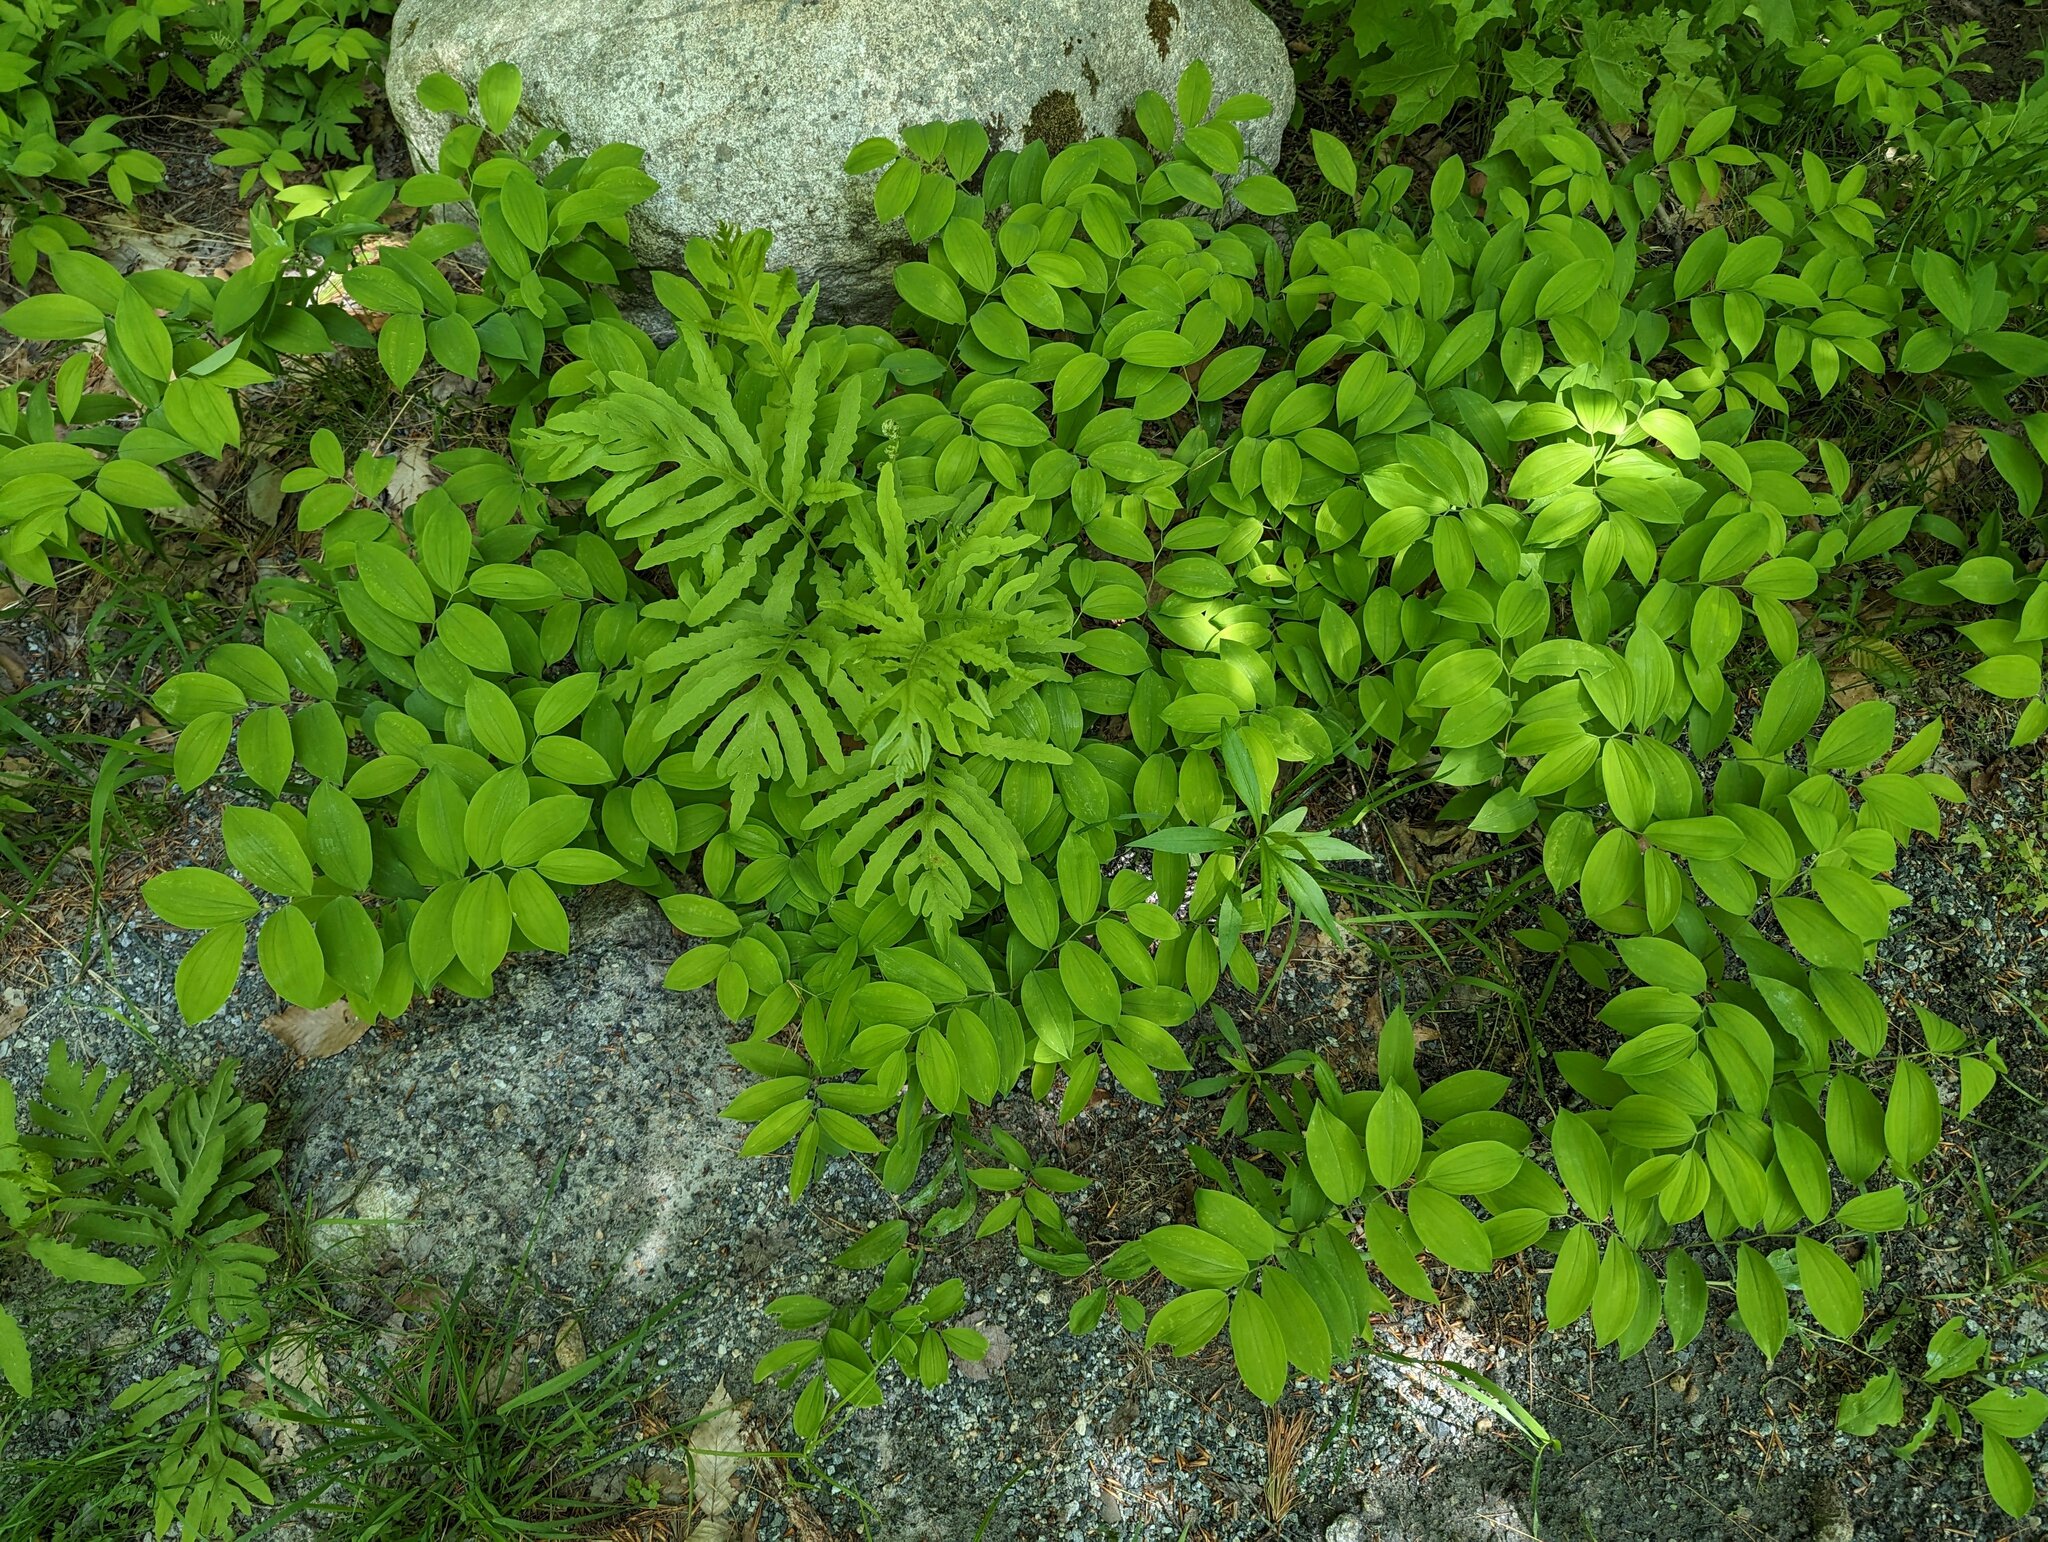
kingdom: Plantae
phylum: Tracheophyta
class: Polypodiopsida
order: Polypodiales
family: Onocleaceae
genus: Onoclea
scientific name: Onoclea sensibilis
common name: Sensitive fern
